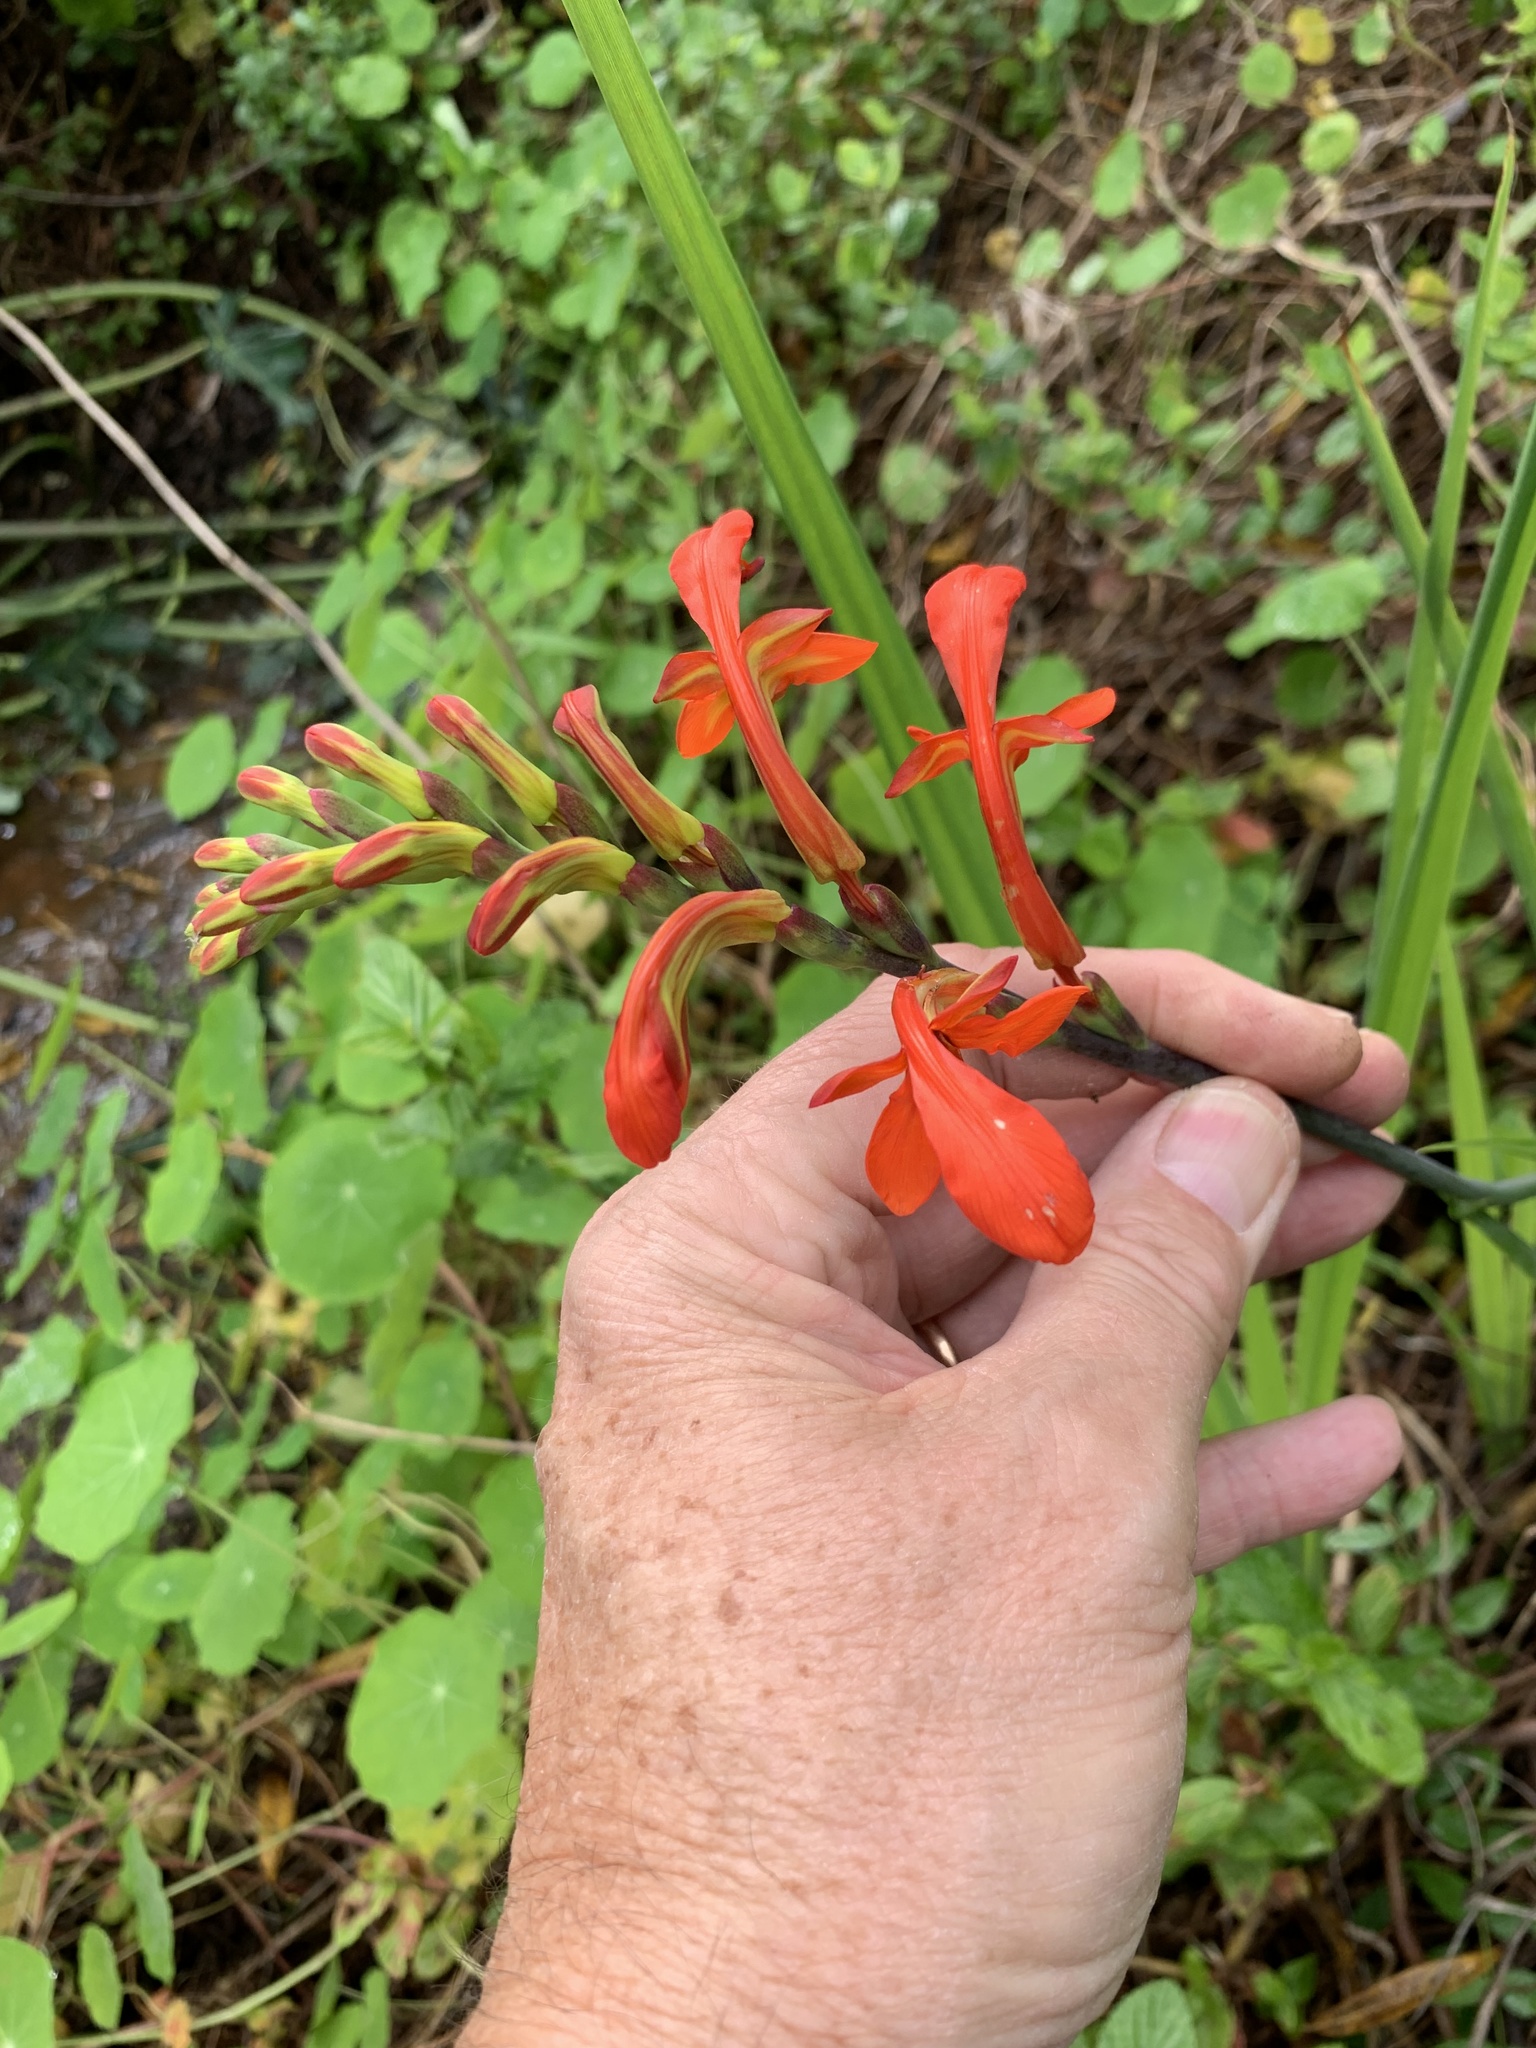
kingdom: Plantae
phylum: Tracheophyta
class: Liliopsida
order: Asparagales
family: Iridaceae
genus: Chasmanthe
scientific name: Chasmanthe aethiopica
